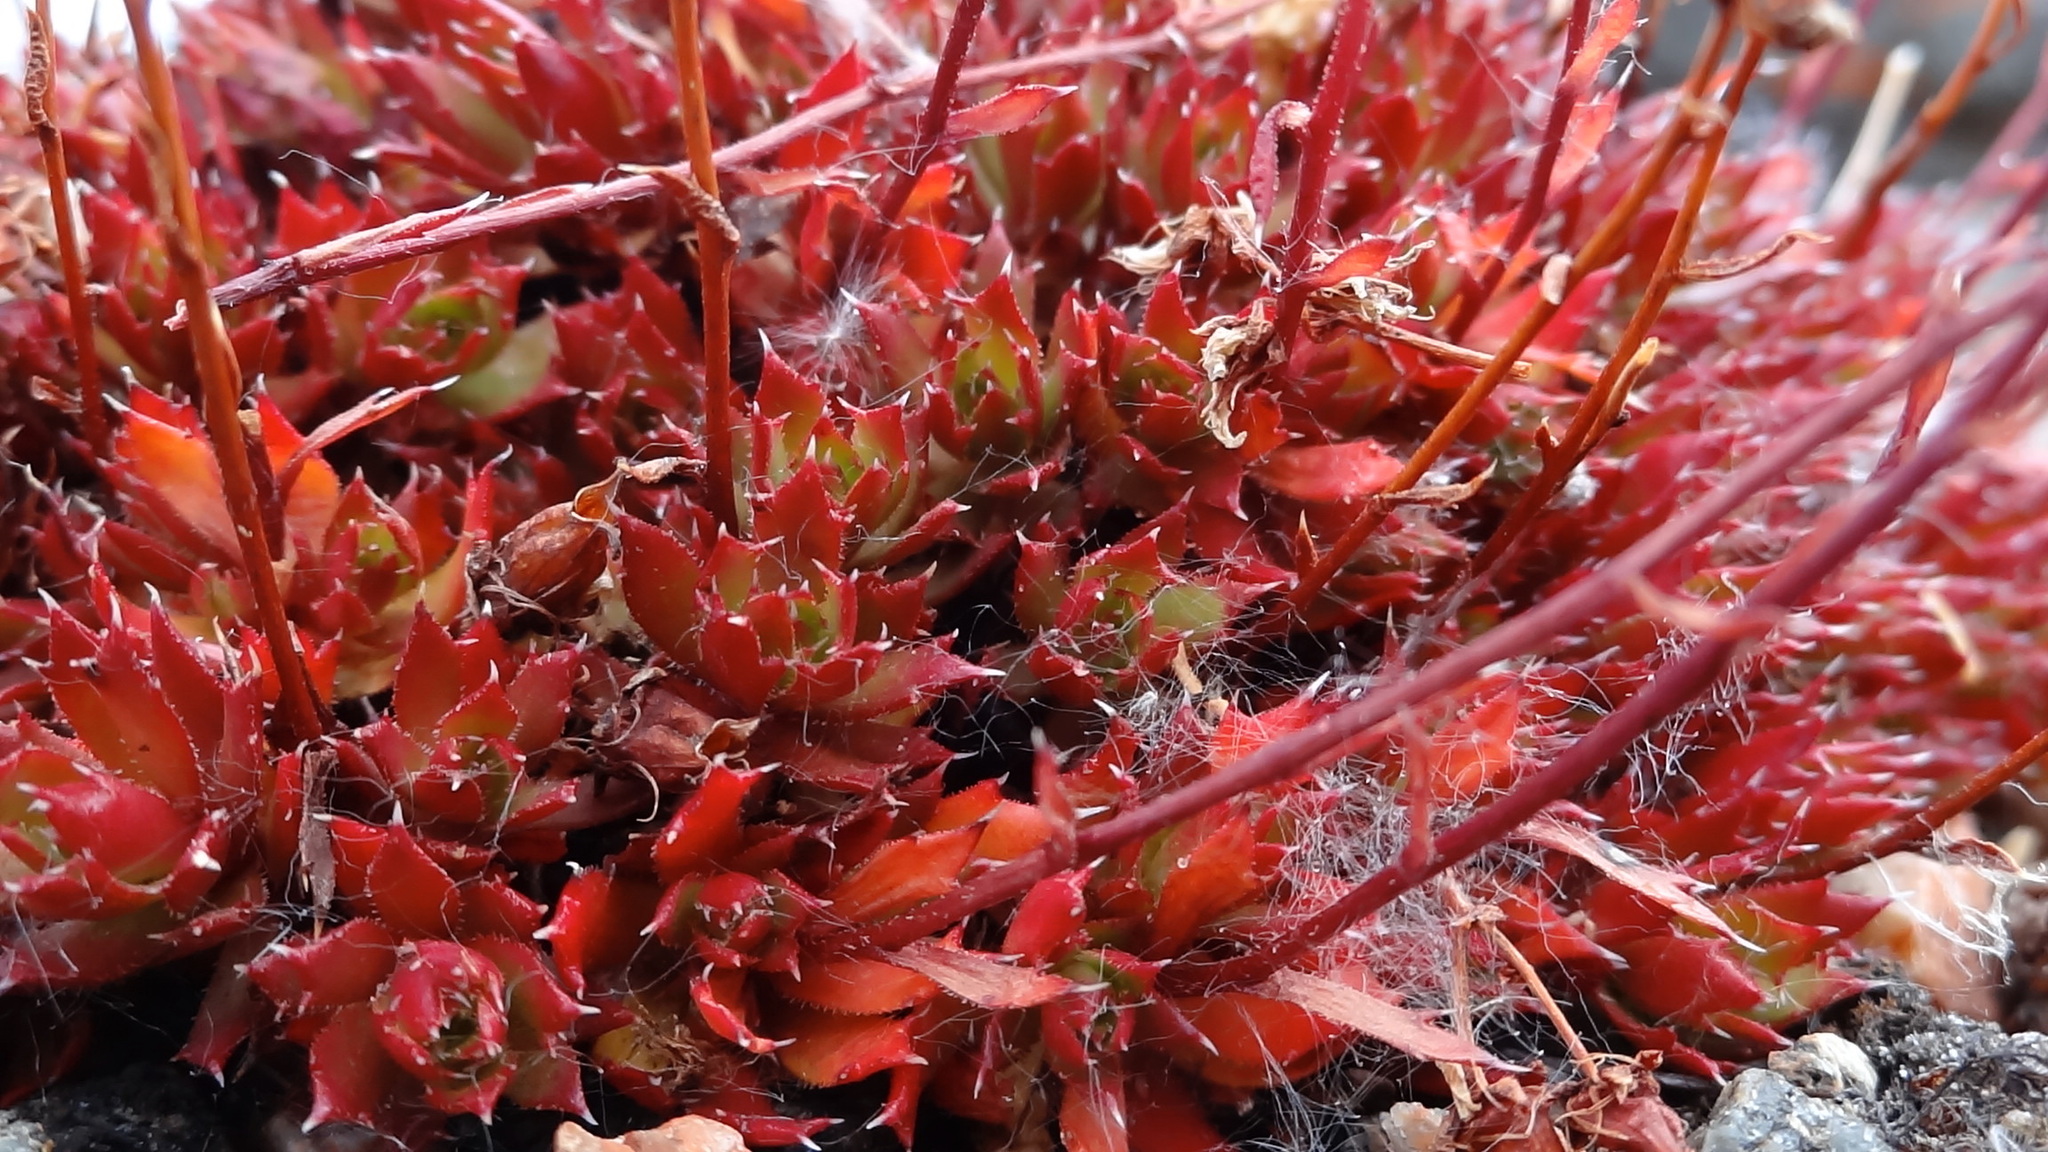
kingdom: Plantae
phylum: Tracheophyta
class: Magnoliopsida
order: Saxifragales
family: Saxifragaceae
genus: Saxifraga
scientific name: Saxifraga tricuspidata
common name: Prickly saxifrage
